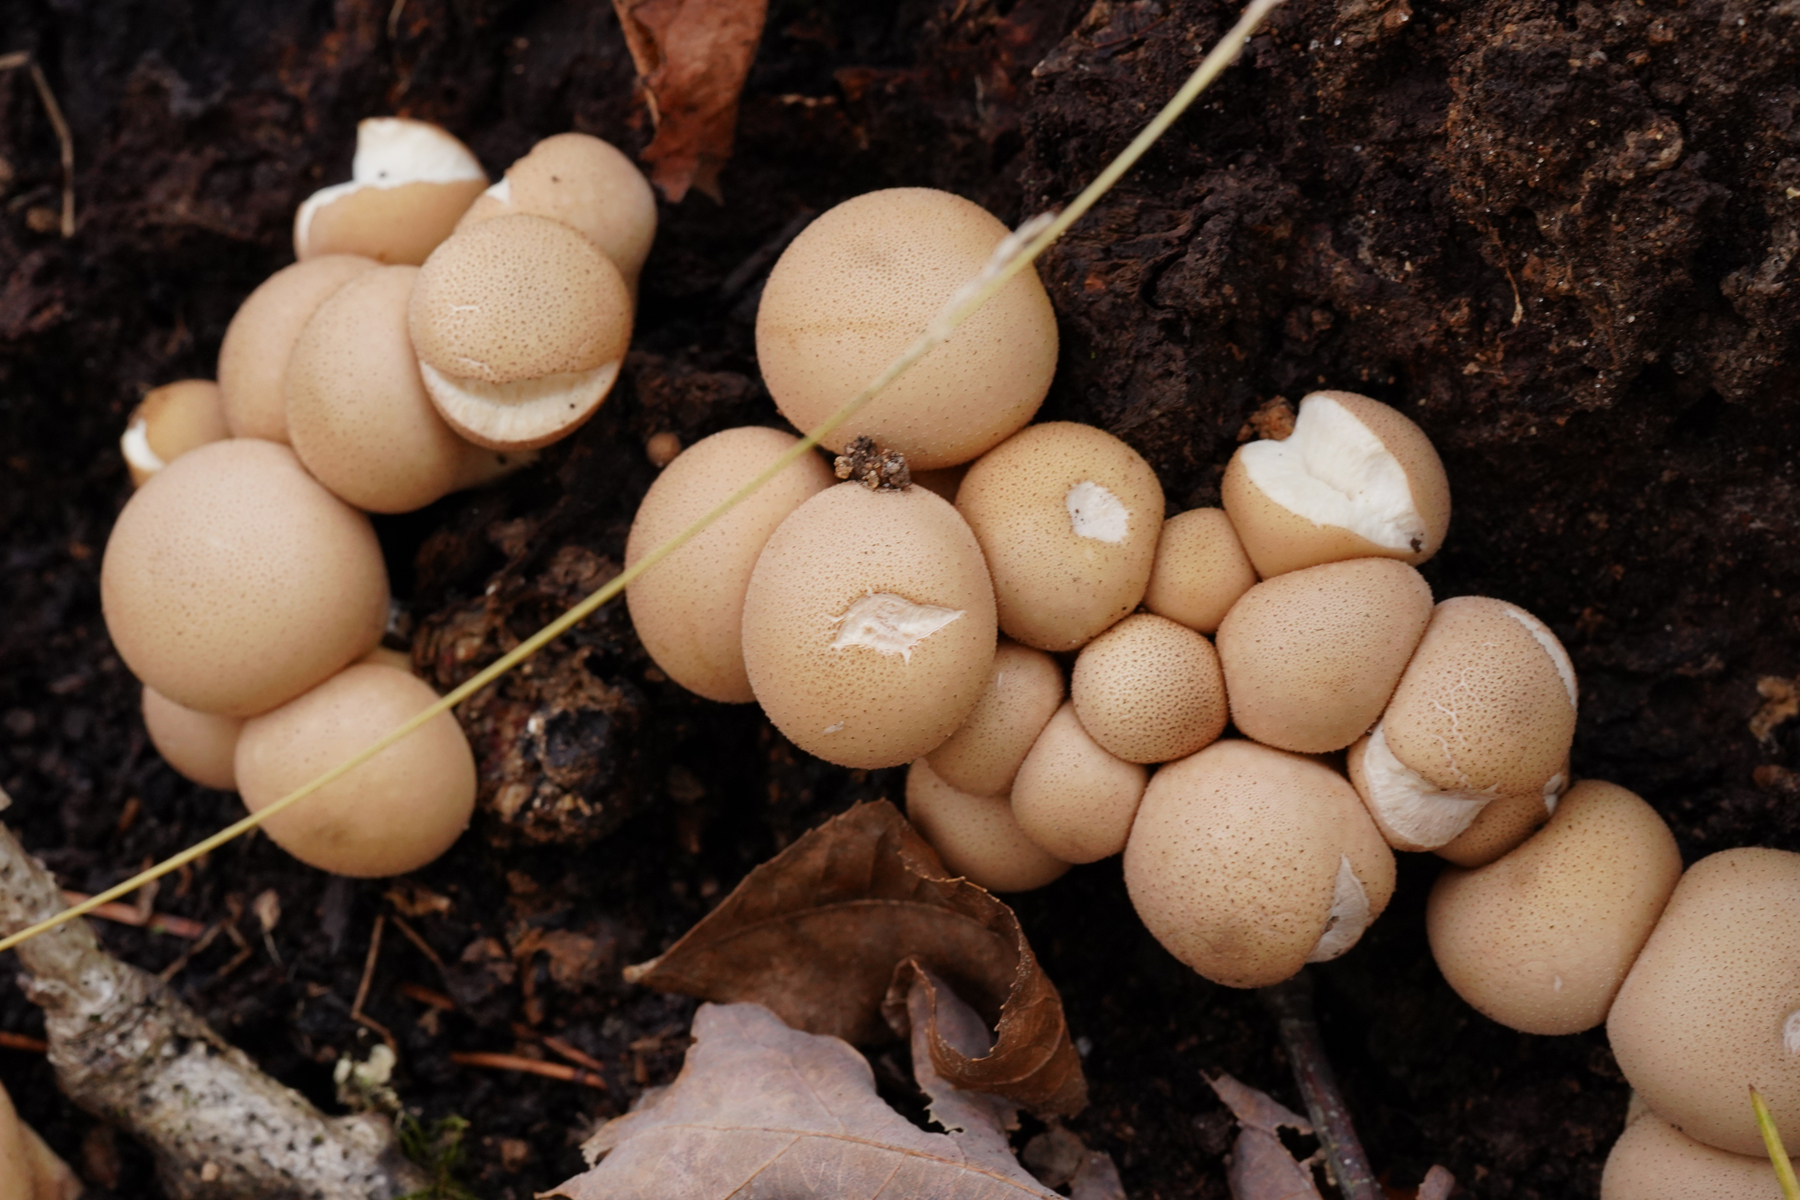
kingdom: Fungi
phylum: Basidiomycota
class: Agaricomycetes
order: Agaricales
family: Lycoperdaceae
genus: Apioperdon
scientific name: Apioperdon pyriforme
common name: Pear-shaped puffball
